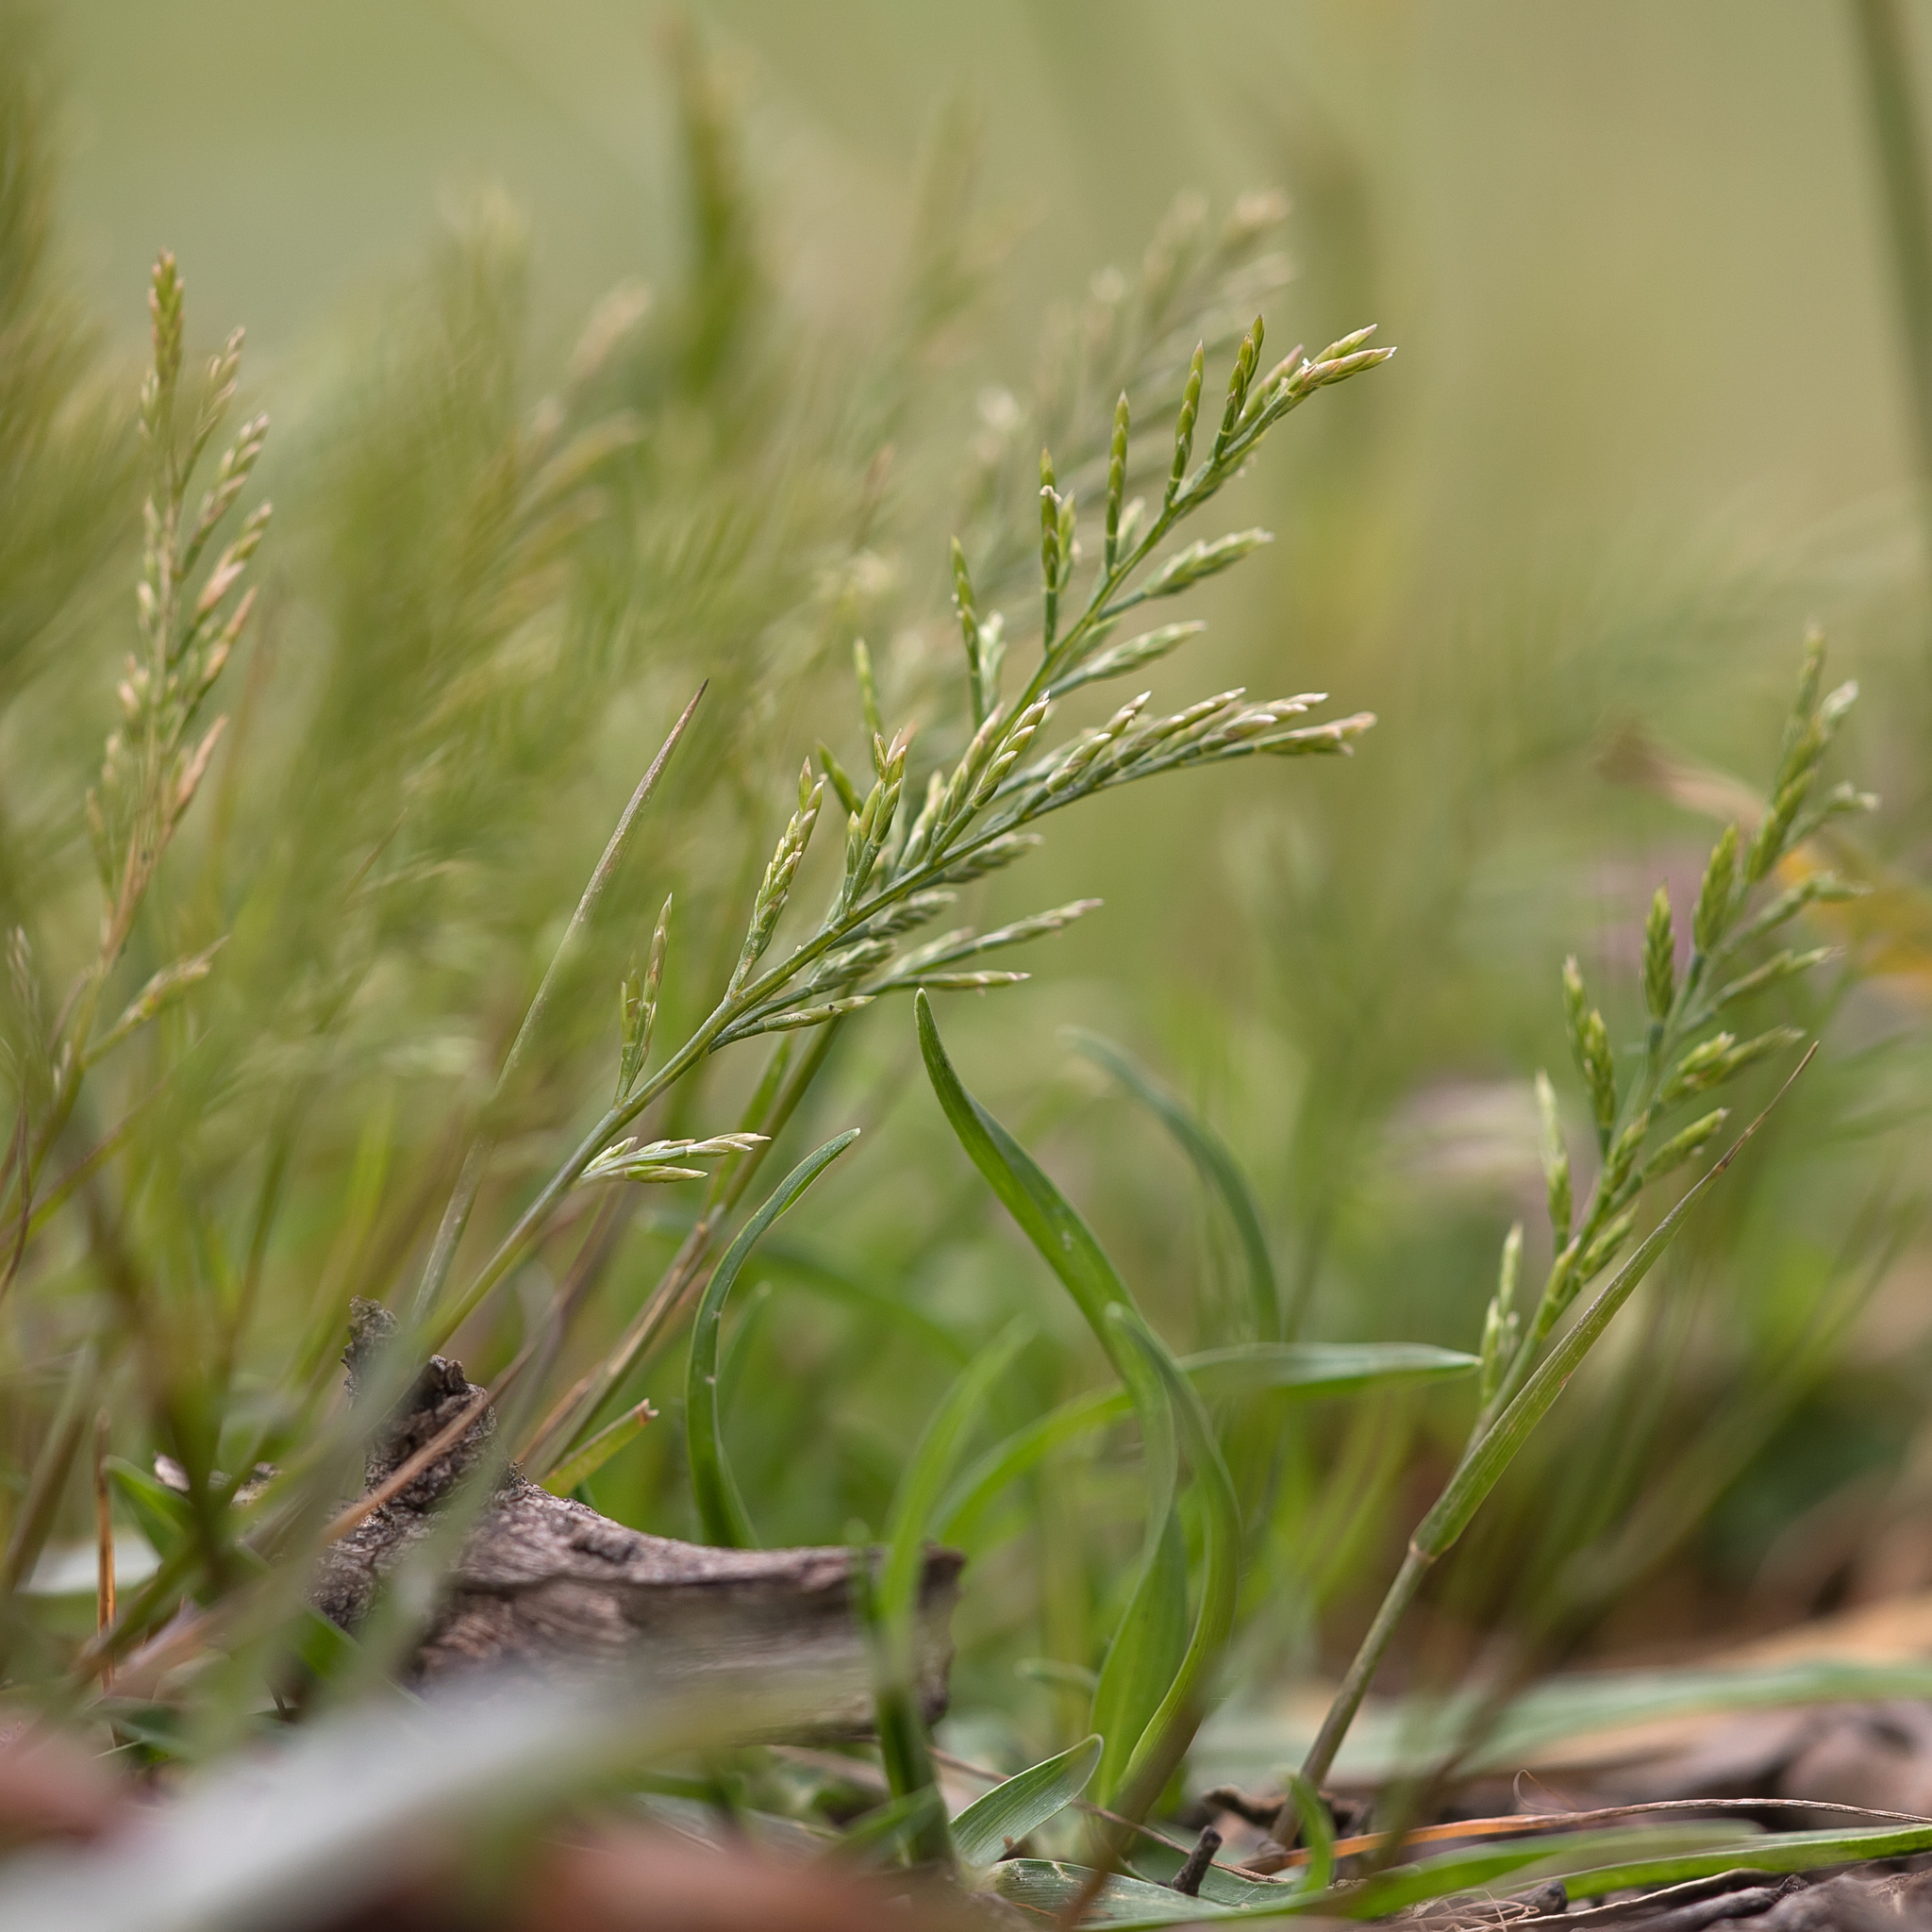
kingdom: Plantae
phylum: Tracheophyta
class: Liliopsida
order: Poales
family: Poaceae
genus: Catapodium
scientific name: Catapodium rigidum
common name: Fern-grass
